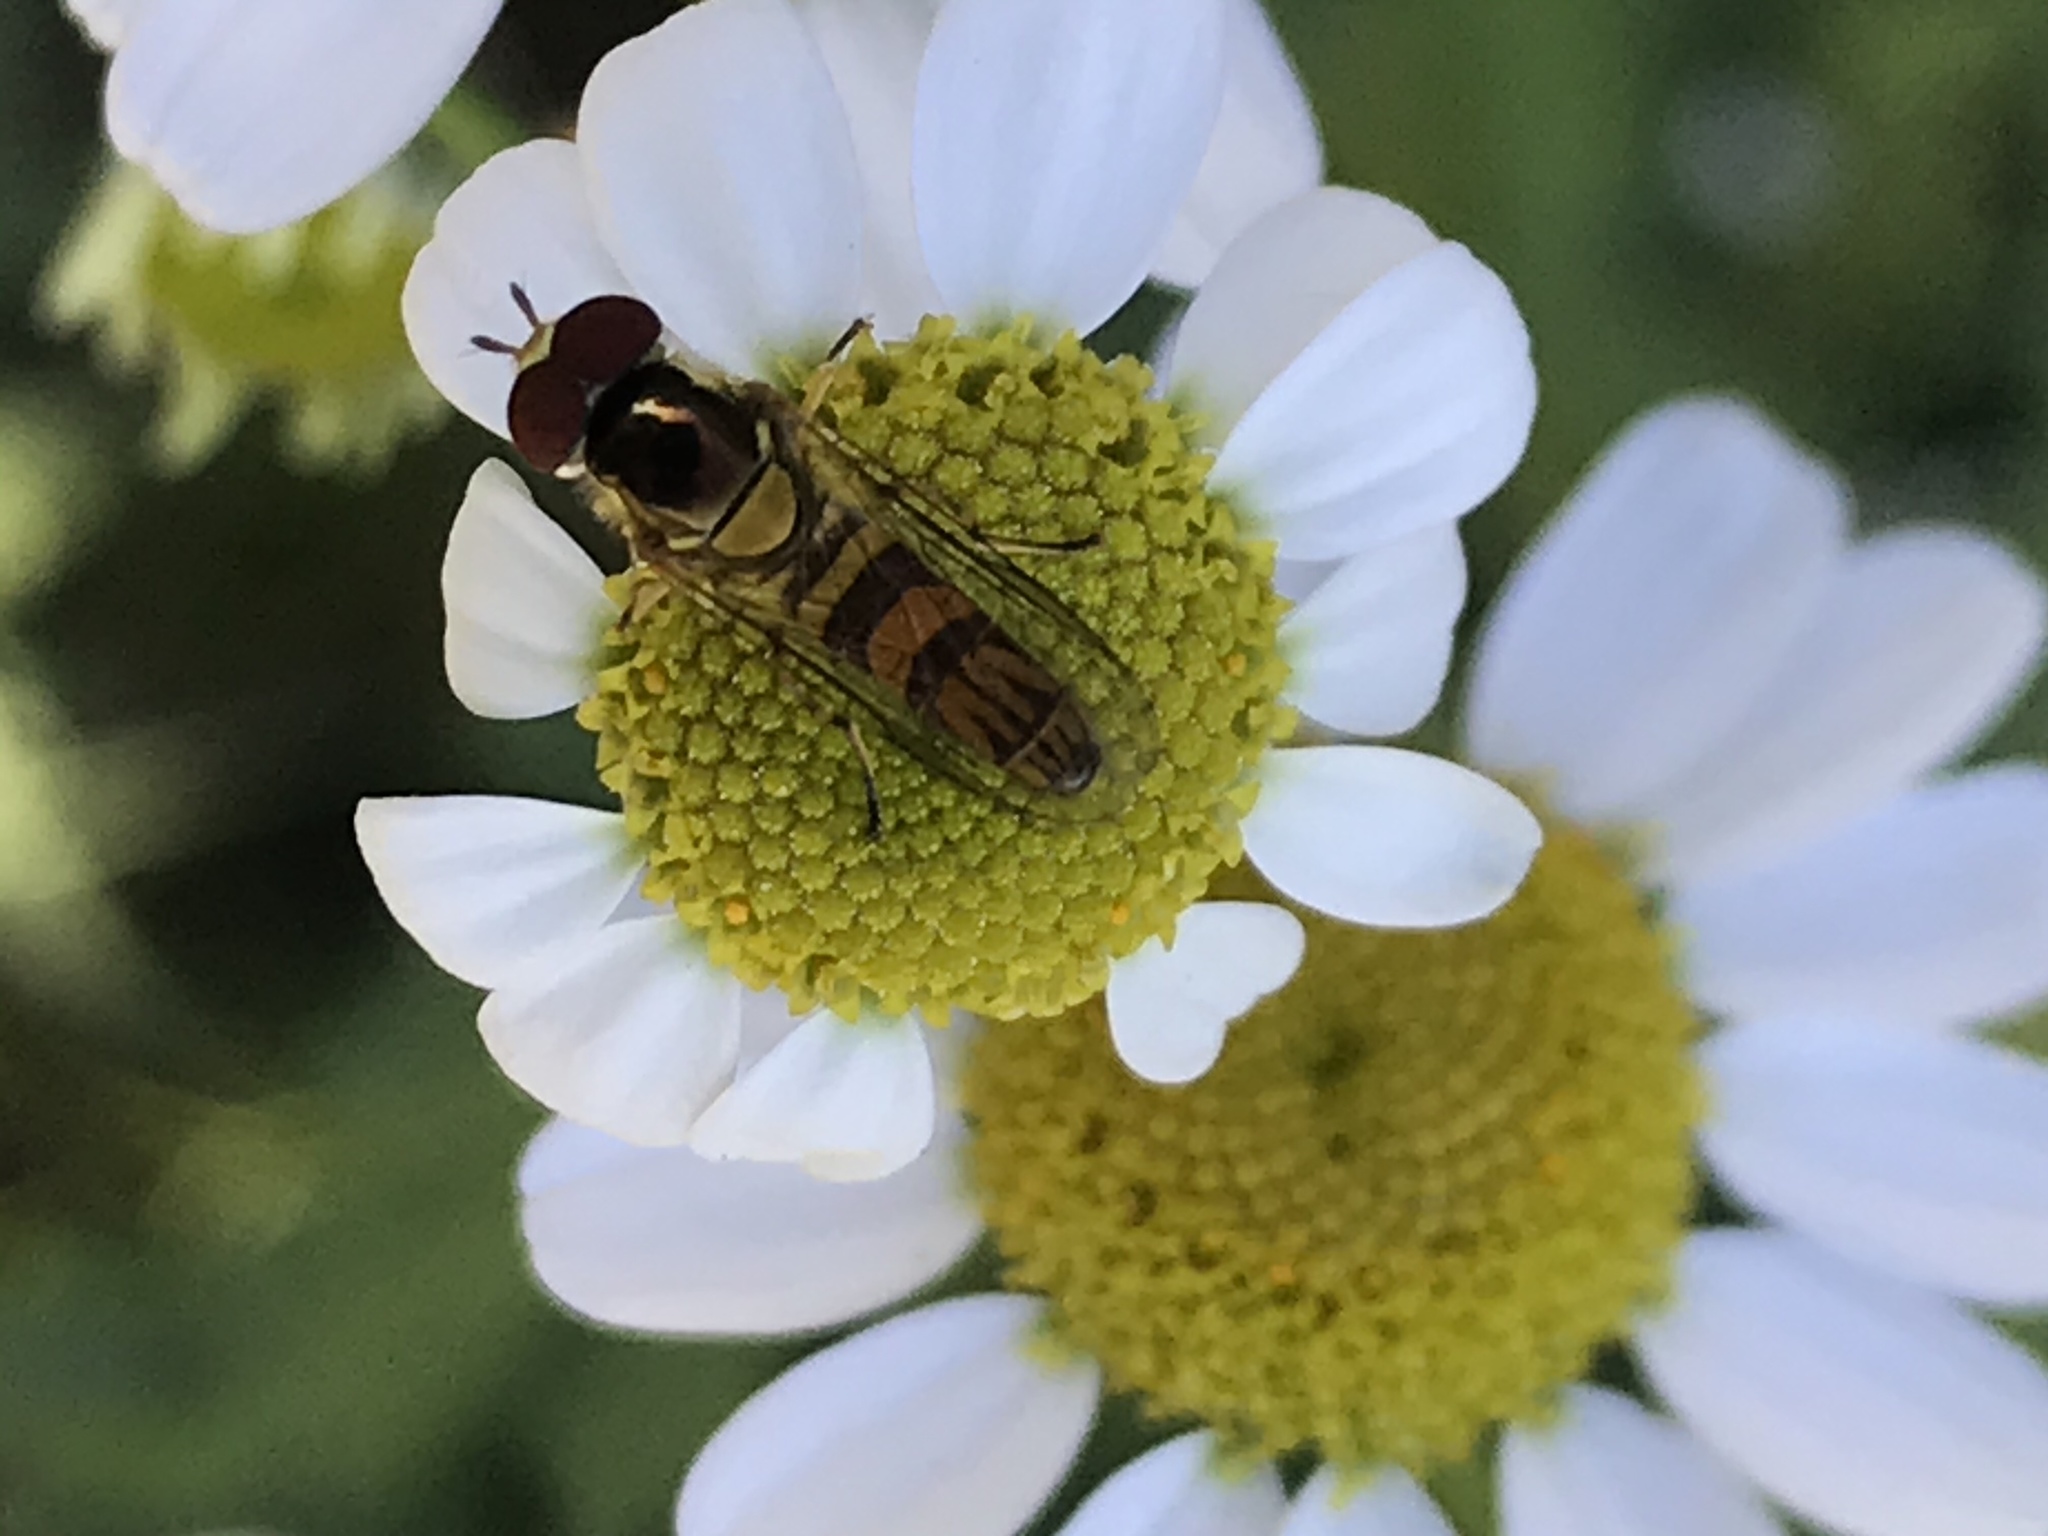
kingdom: Animalia
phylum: Arthropoda
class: Insecta
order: Diptera
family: Syrphidae
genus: Allograpta
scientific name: Allograpta obliqua
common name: Common oblique syrphid
